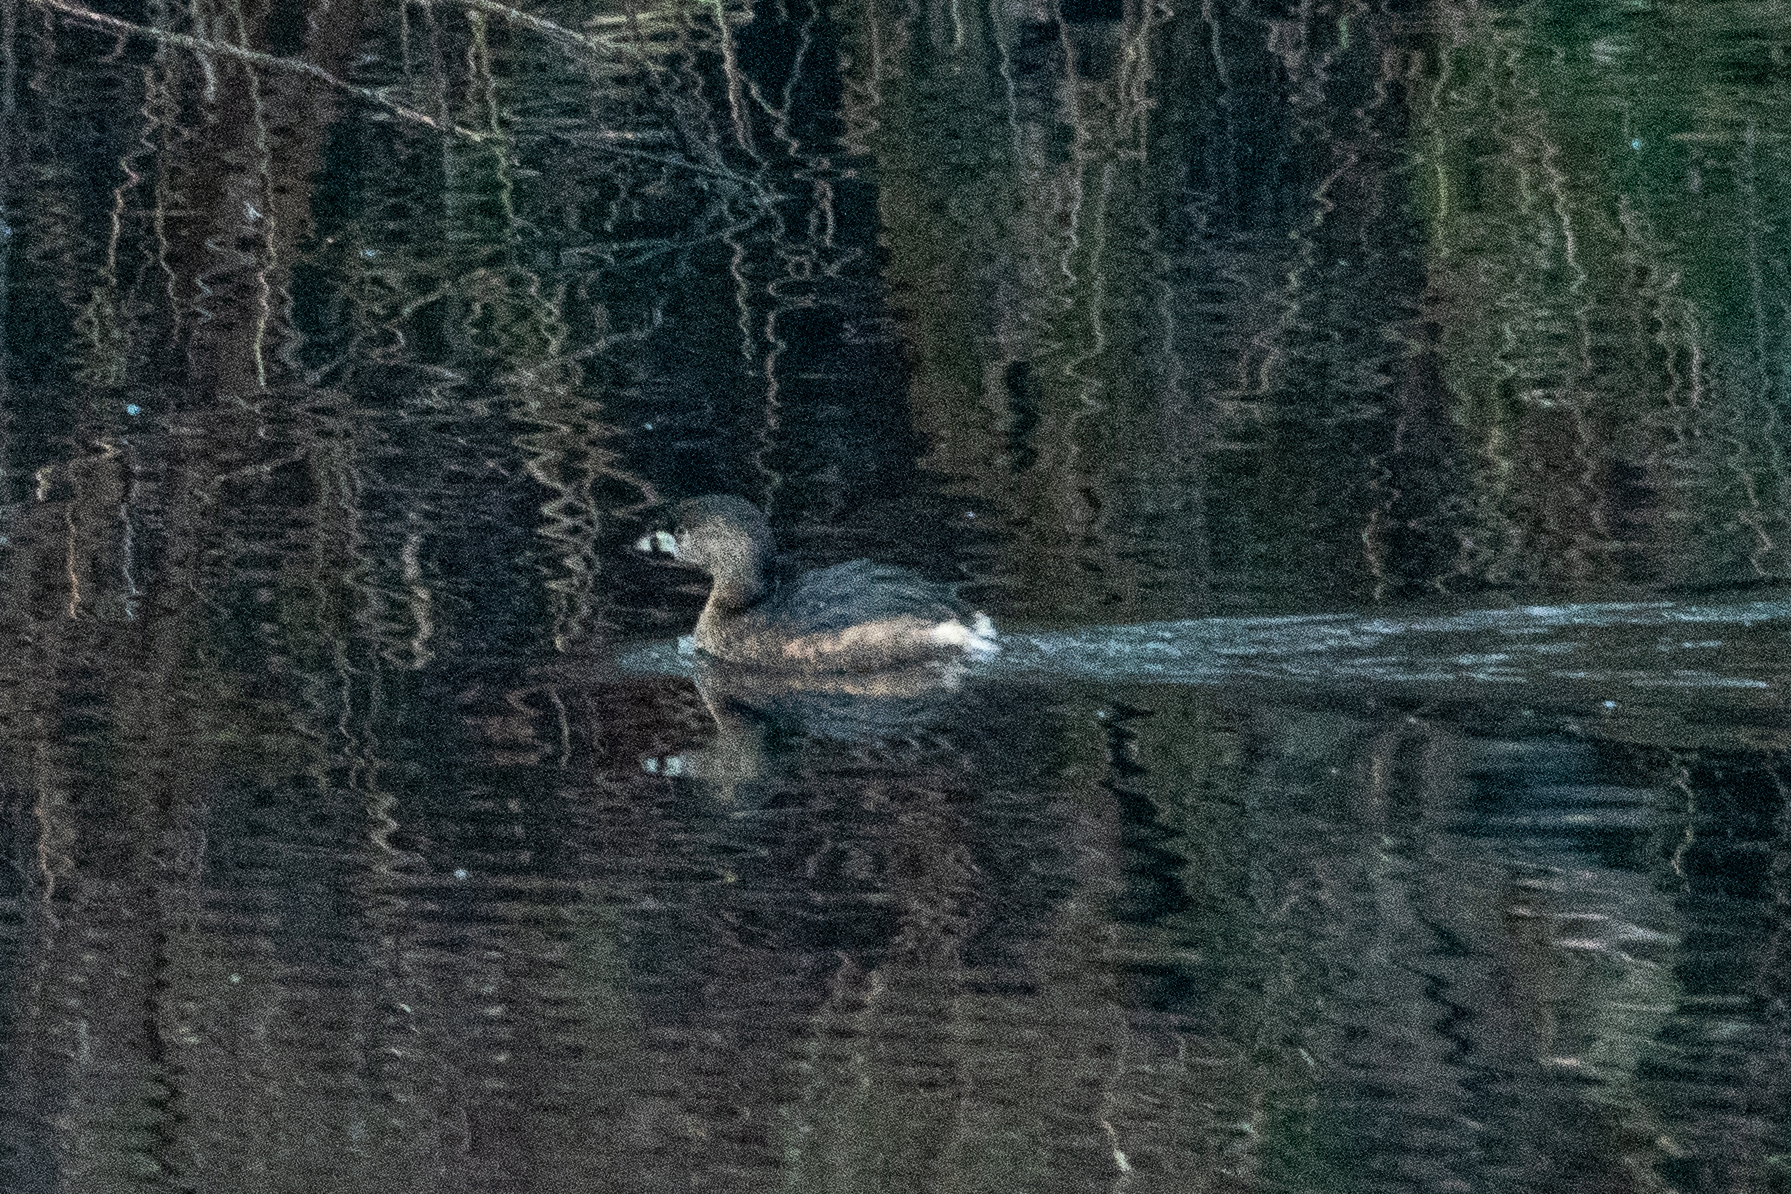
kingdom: Animalia
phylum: Chordata
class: Aves
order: Podicipediformes
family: Podicipedidae
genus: Podilymbus
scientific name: Podilymbus podiceps
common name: Pied-billed grebe
